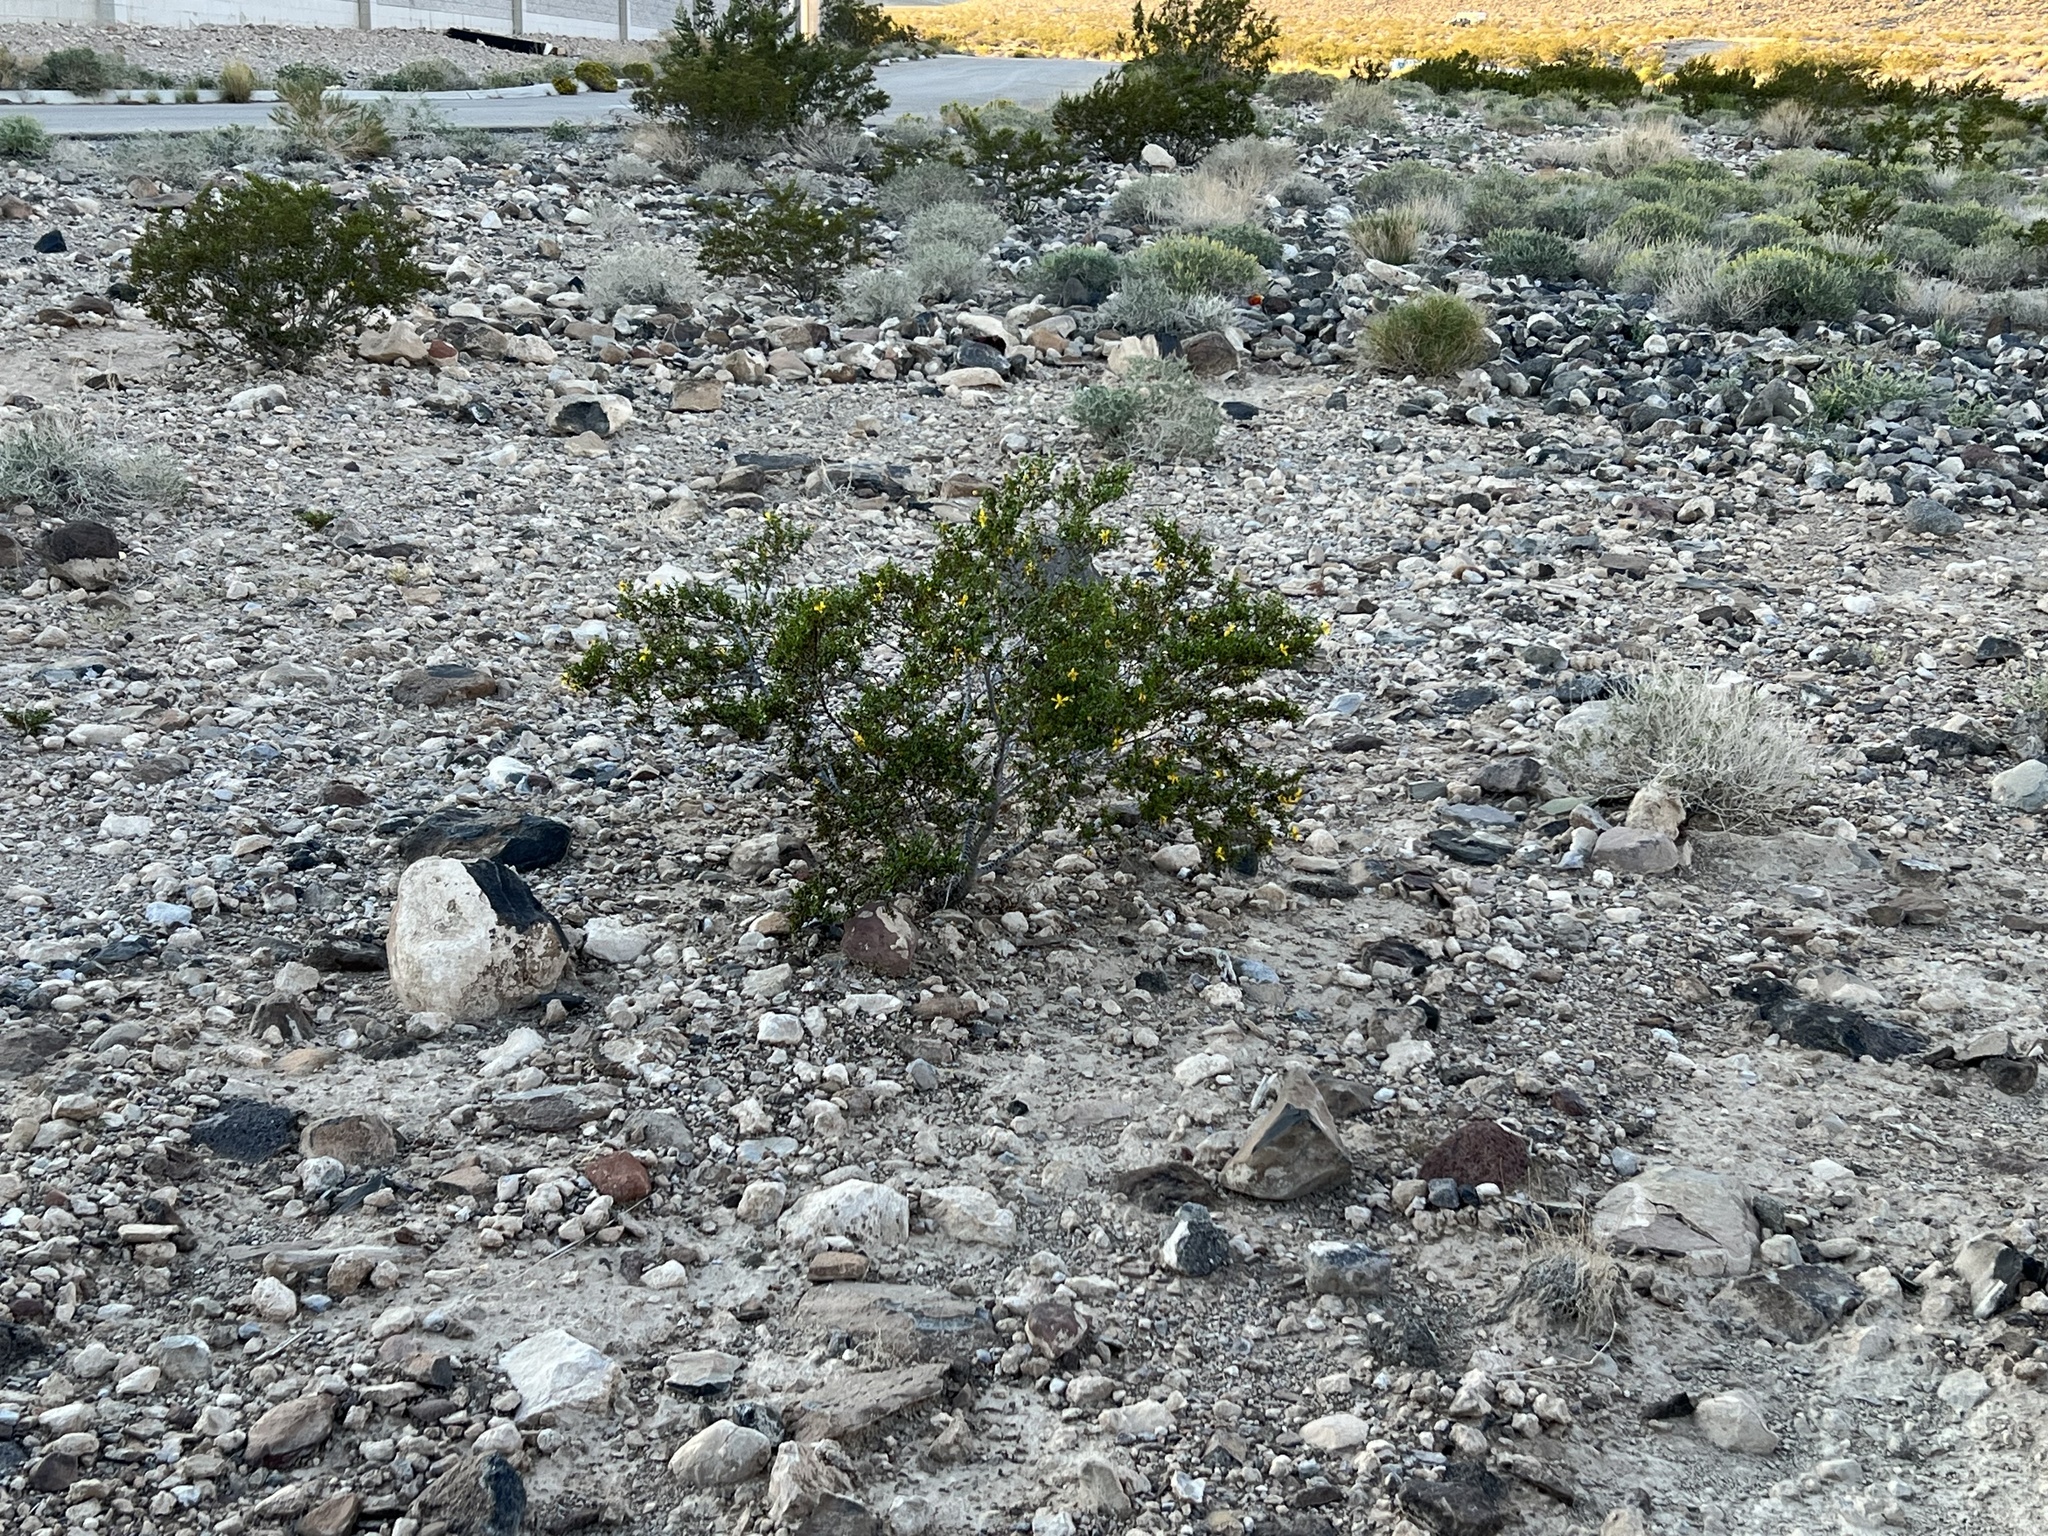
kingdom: Plantae
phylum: Tracheophyta
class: Magnoliopsida
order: Zygophyllales
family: Zygophyllaceae
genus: Larrea
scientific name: Larrea tridentata
